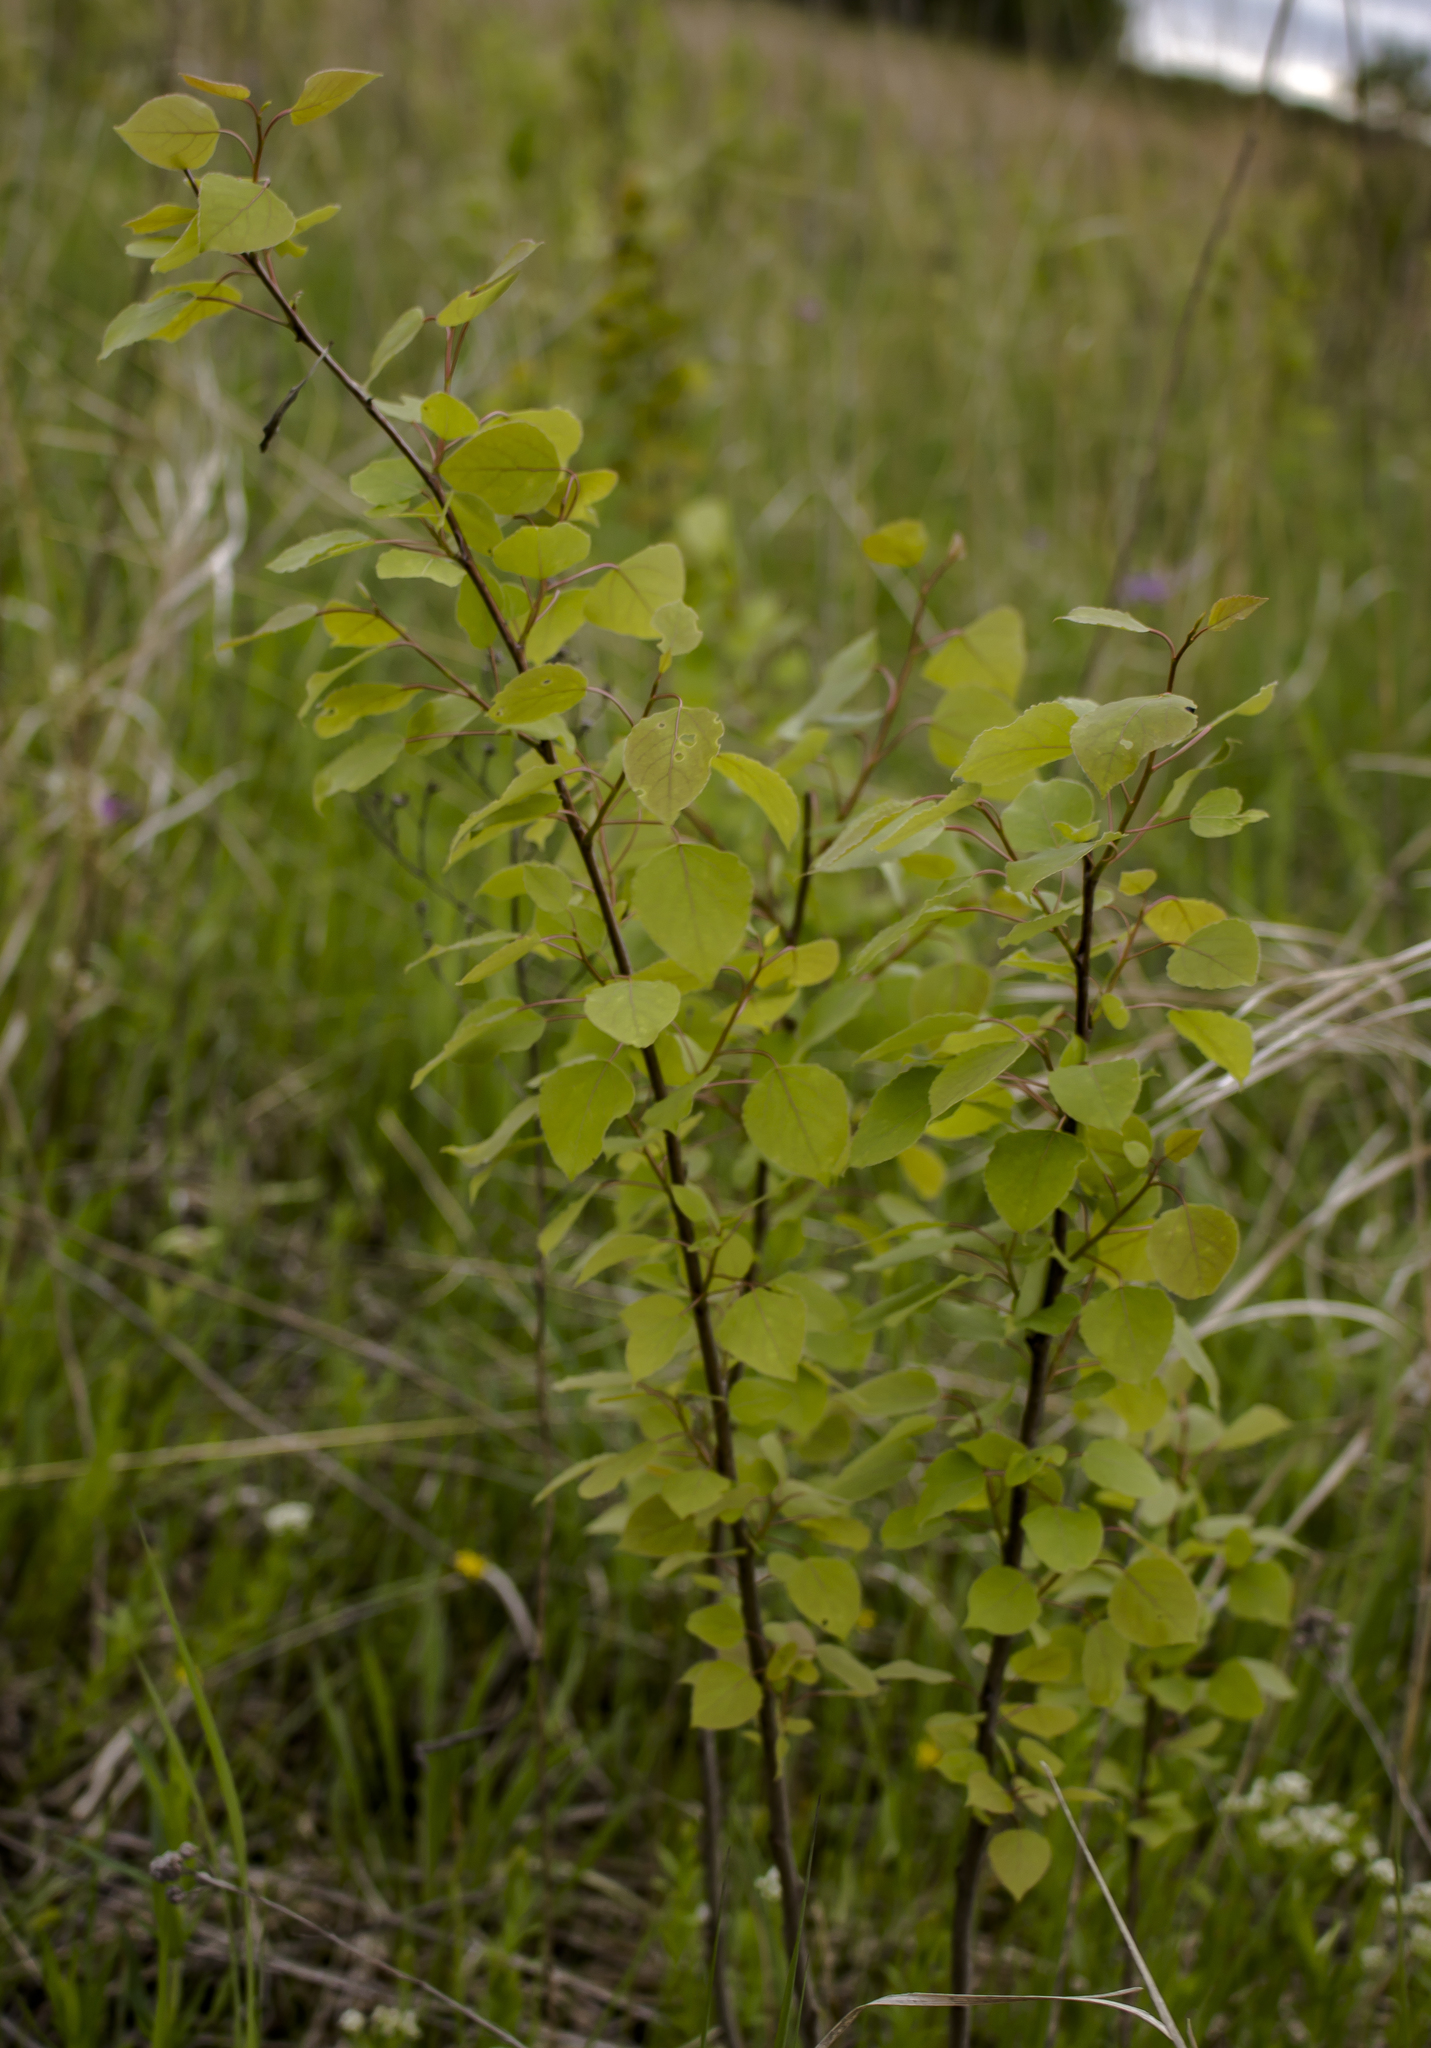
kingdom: Plantae
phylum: Tracheophyta
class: Magnoliopsida
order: Malpighiales
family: Salicaceae
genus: Populus
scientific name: Populus tremuloides
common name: Quaking aspen
